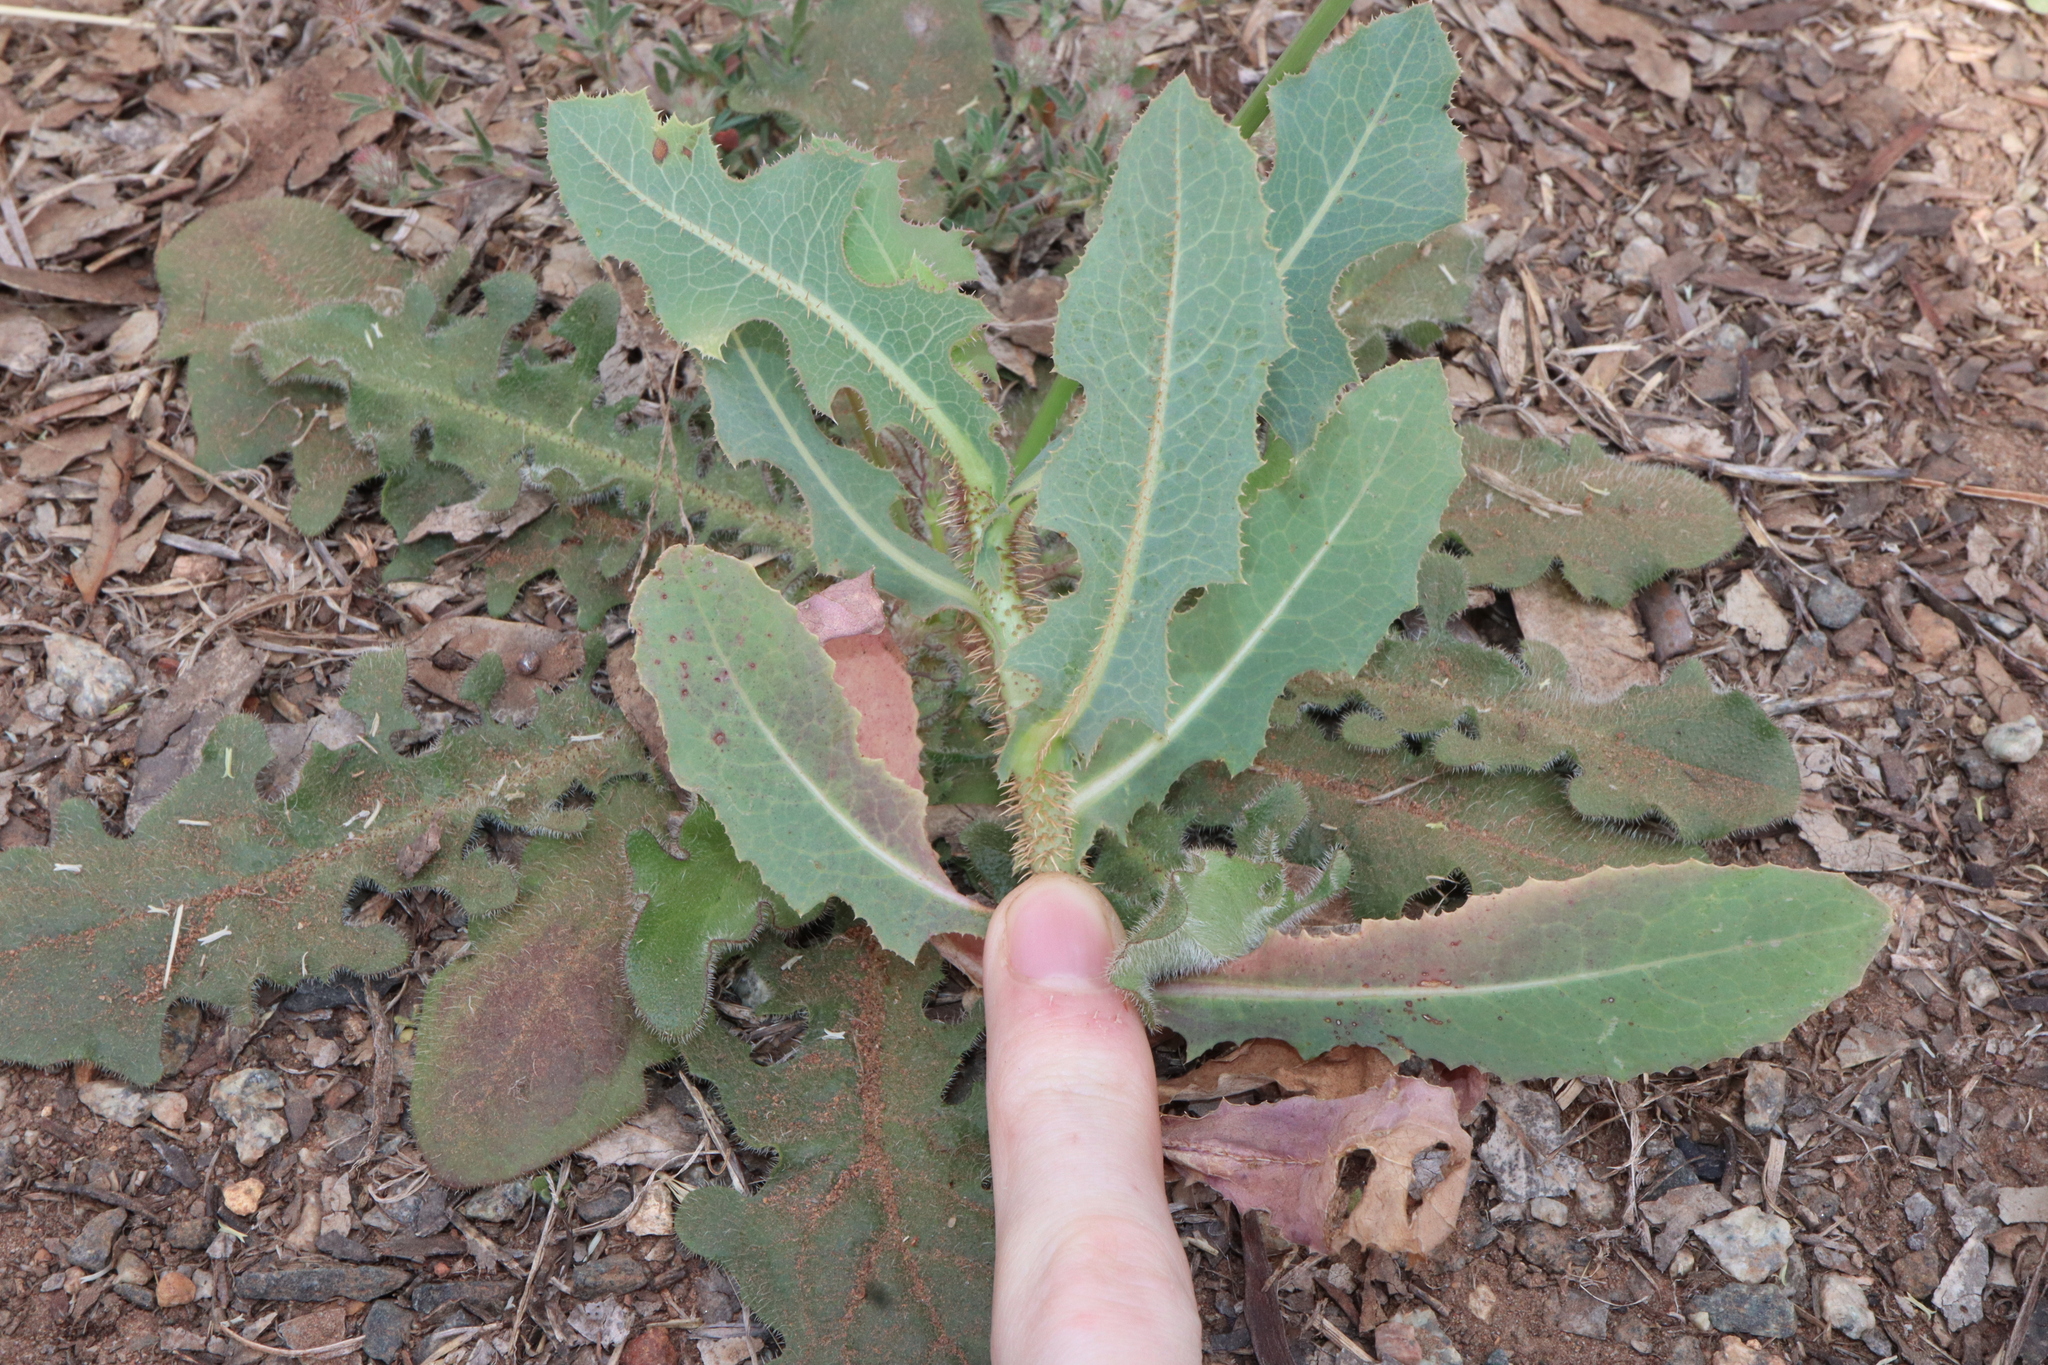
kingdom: Plantae
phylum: Tracheophyta
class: Magnoliopsida
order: Asterales
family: Asteraceae
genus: Lactuca
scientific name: Lactuca serriola
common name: Prickly lettuce
